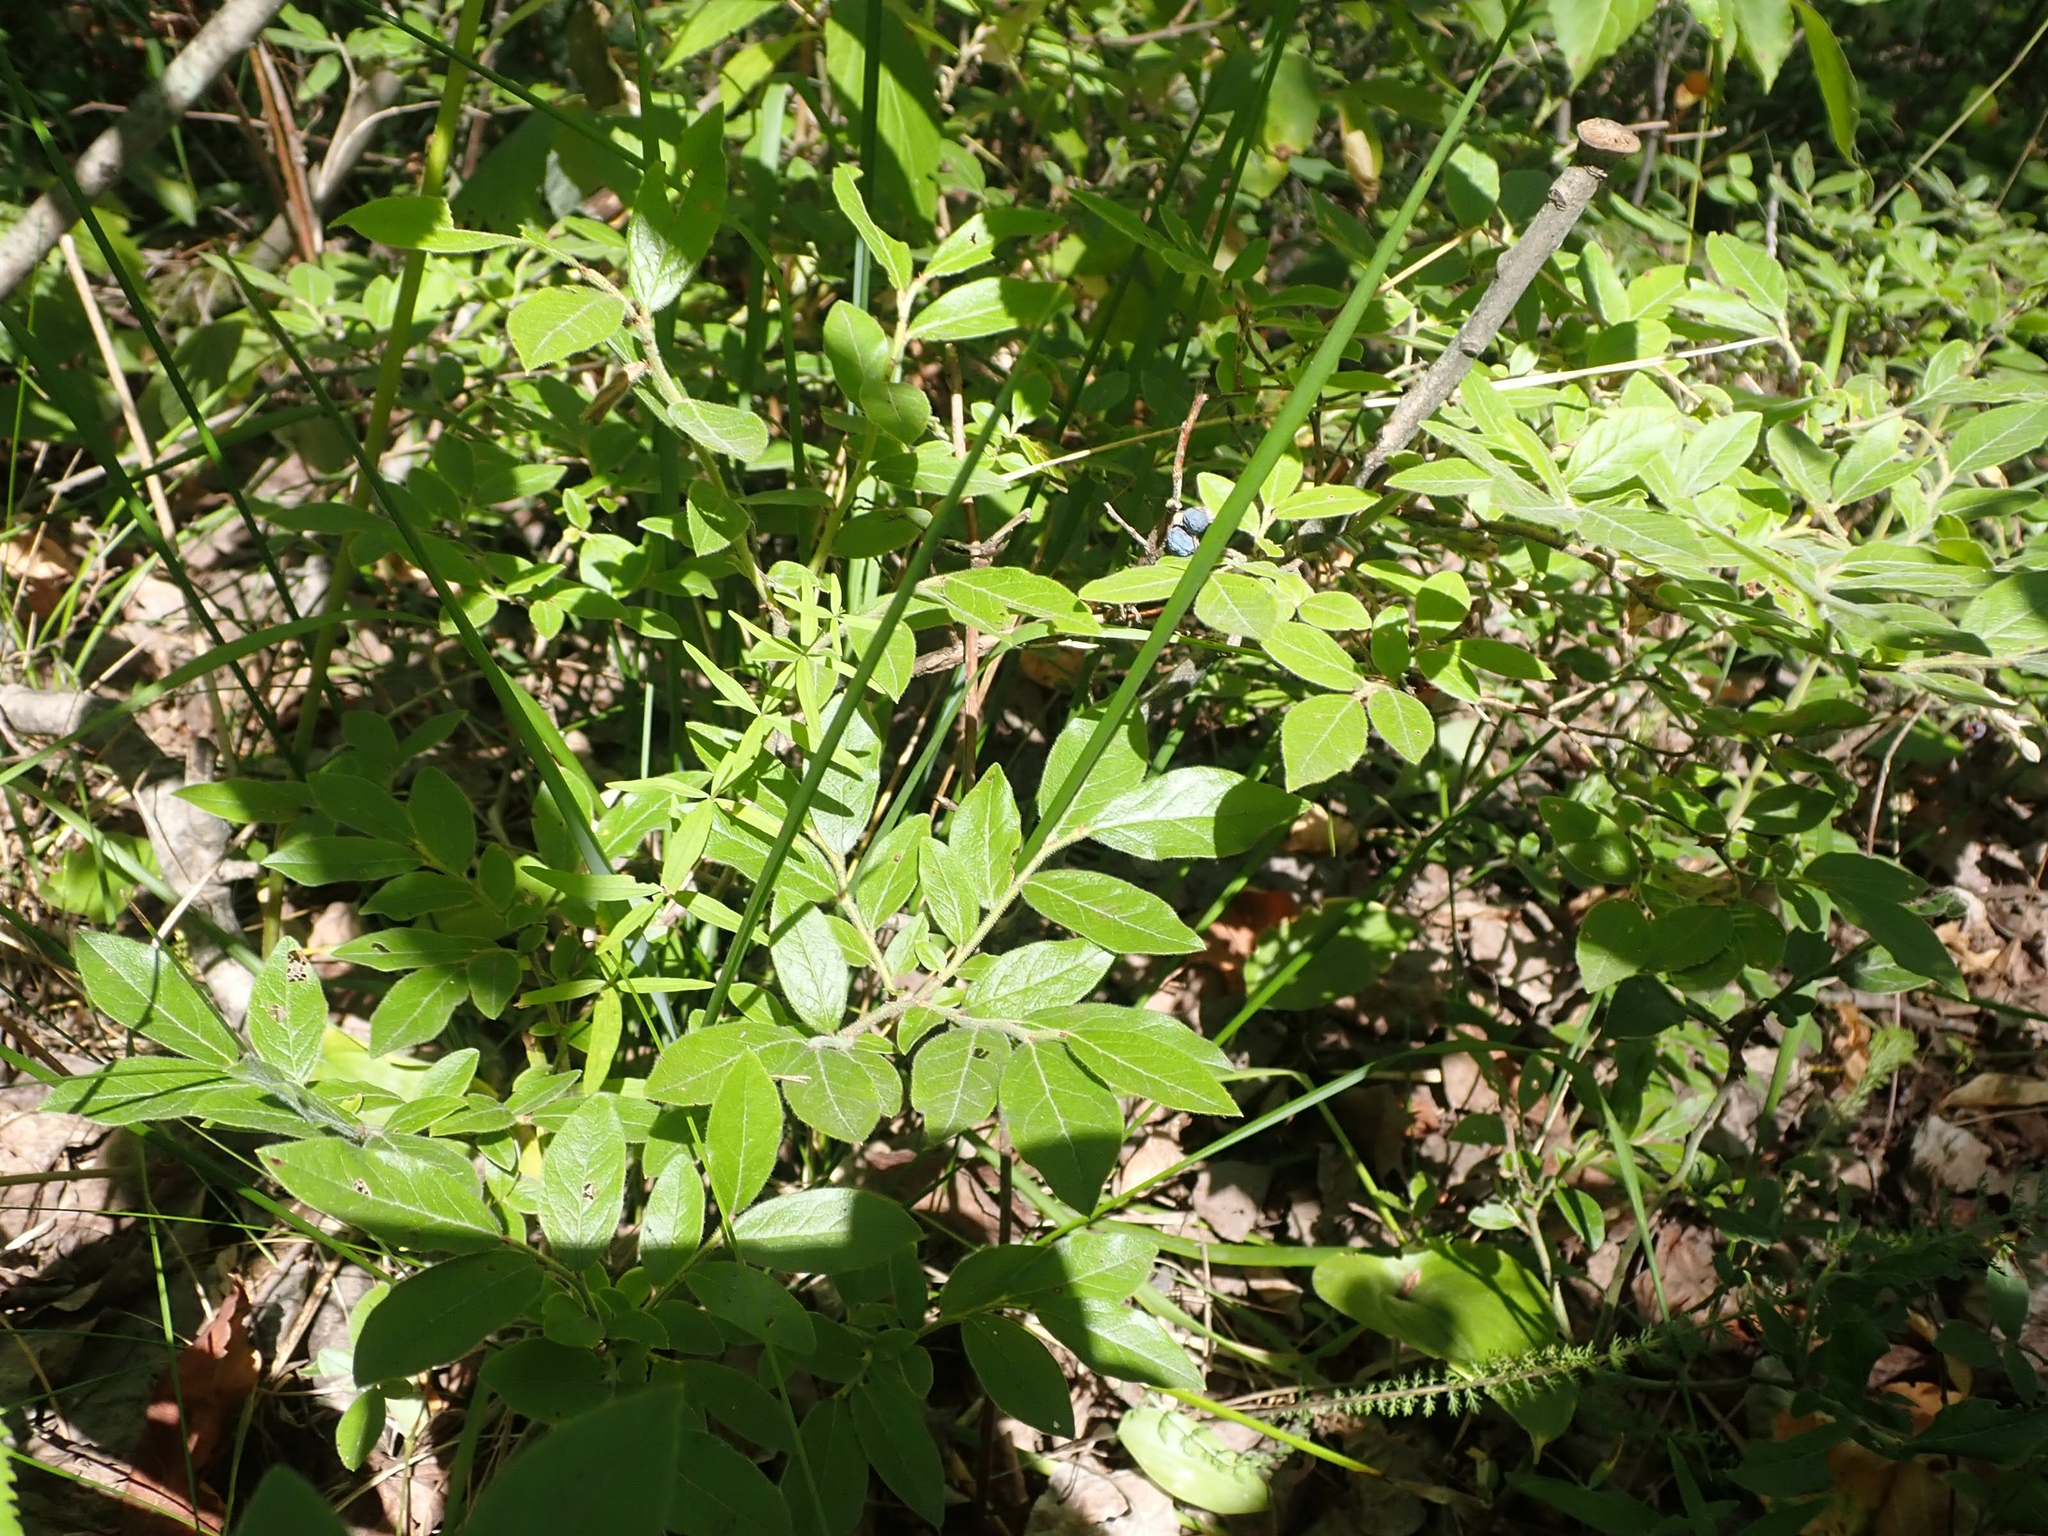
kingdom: Plantae
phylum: Tracheophyta
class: Magnoliopsida
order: Ericales
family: Ericaceae
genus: Vaccinium
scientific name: Vaccinium myrtilloides
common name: Canada blueberry
